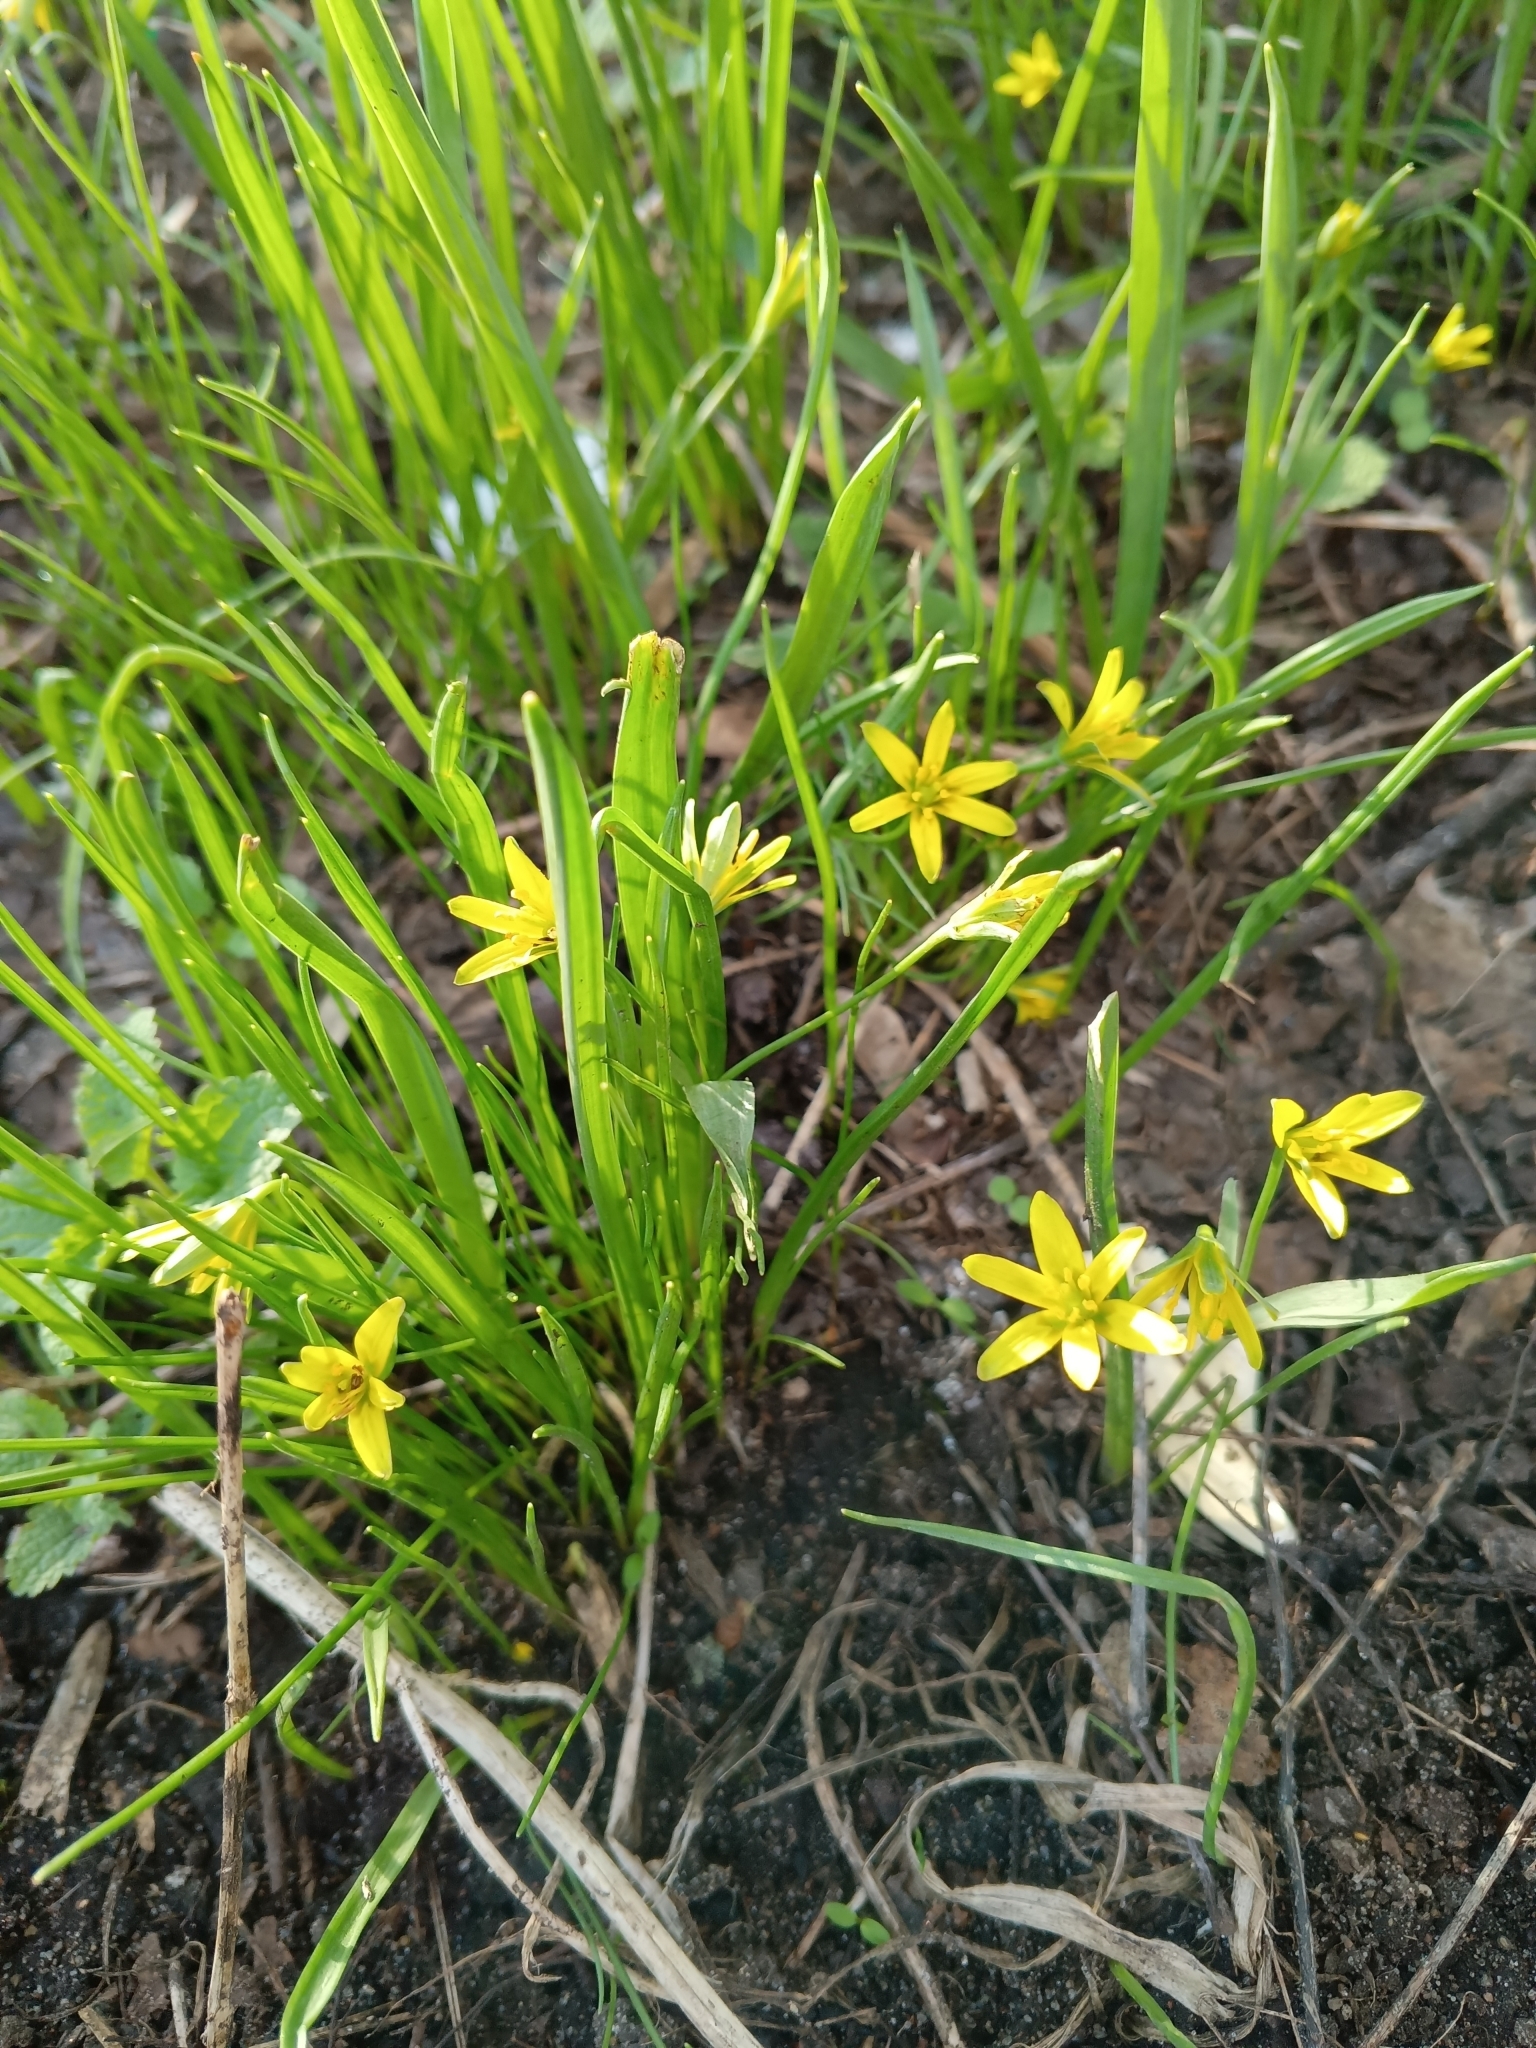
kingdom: Plantae
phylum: Tracheophyta
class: Liliopsida
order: Liliales
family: Liliaceae
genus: Gagea
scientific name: Gagea lutea
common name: Yellow star-of-bethlehem
